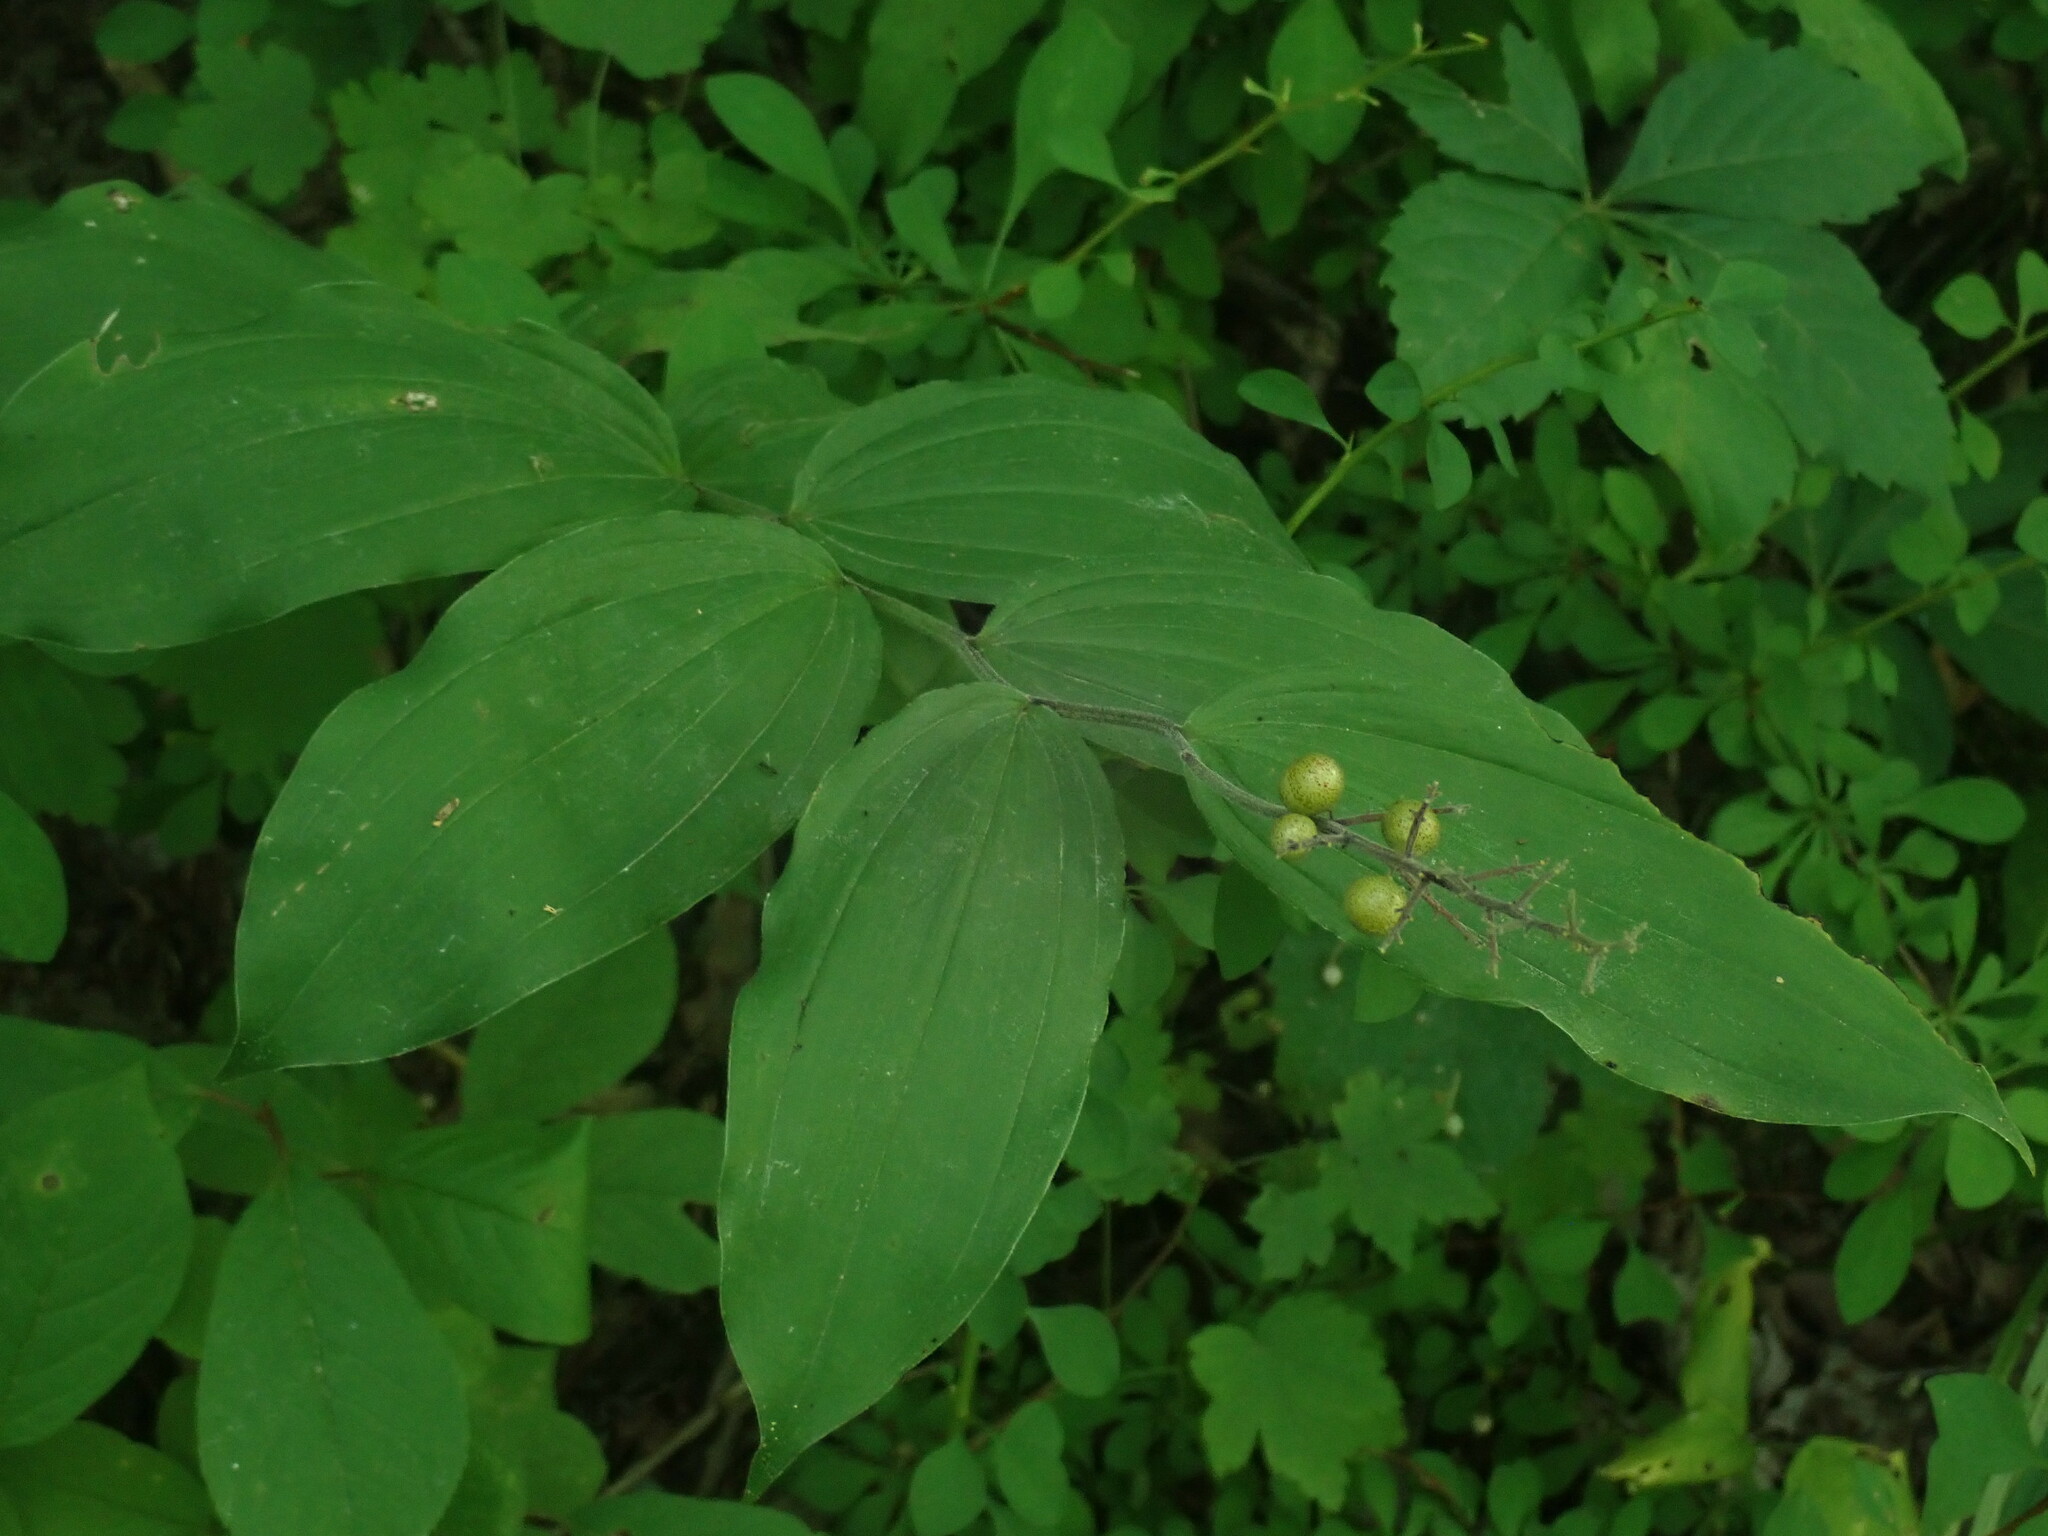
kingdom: Plantae
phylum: Tracheophyta
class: Liliopsida
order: Asparagales
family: Asparagaceae
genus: Maianthemum
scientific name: Maianthemum racemosum
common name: False spikenard
